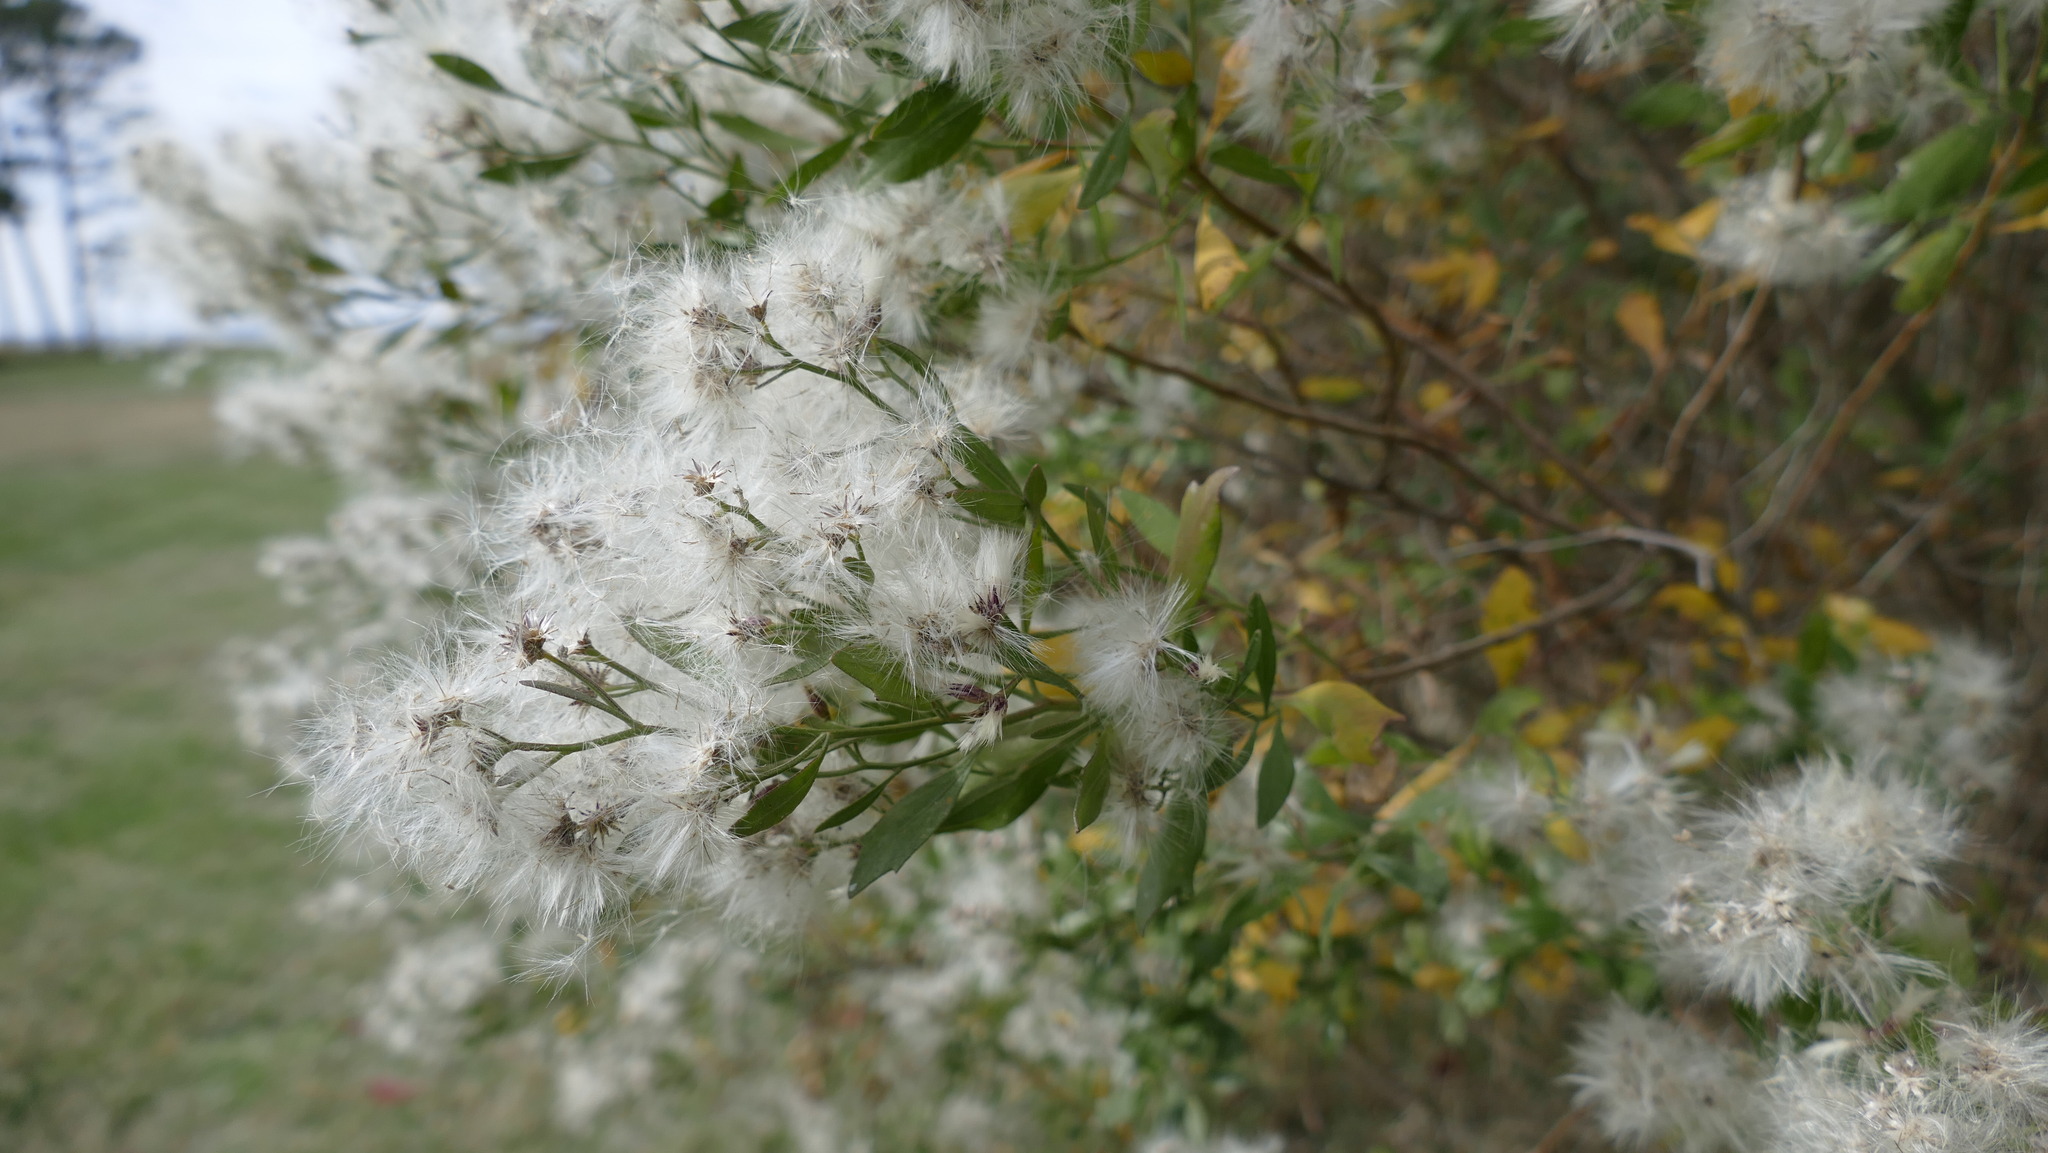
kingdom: Plantae
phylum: Tracheophyta
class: Magnoliopsida
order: Asterales
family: Asteraceae
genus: Baccharis
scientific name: Baccharis halimifolia
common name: Eastern baccharis
